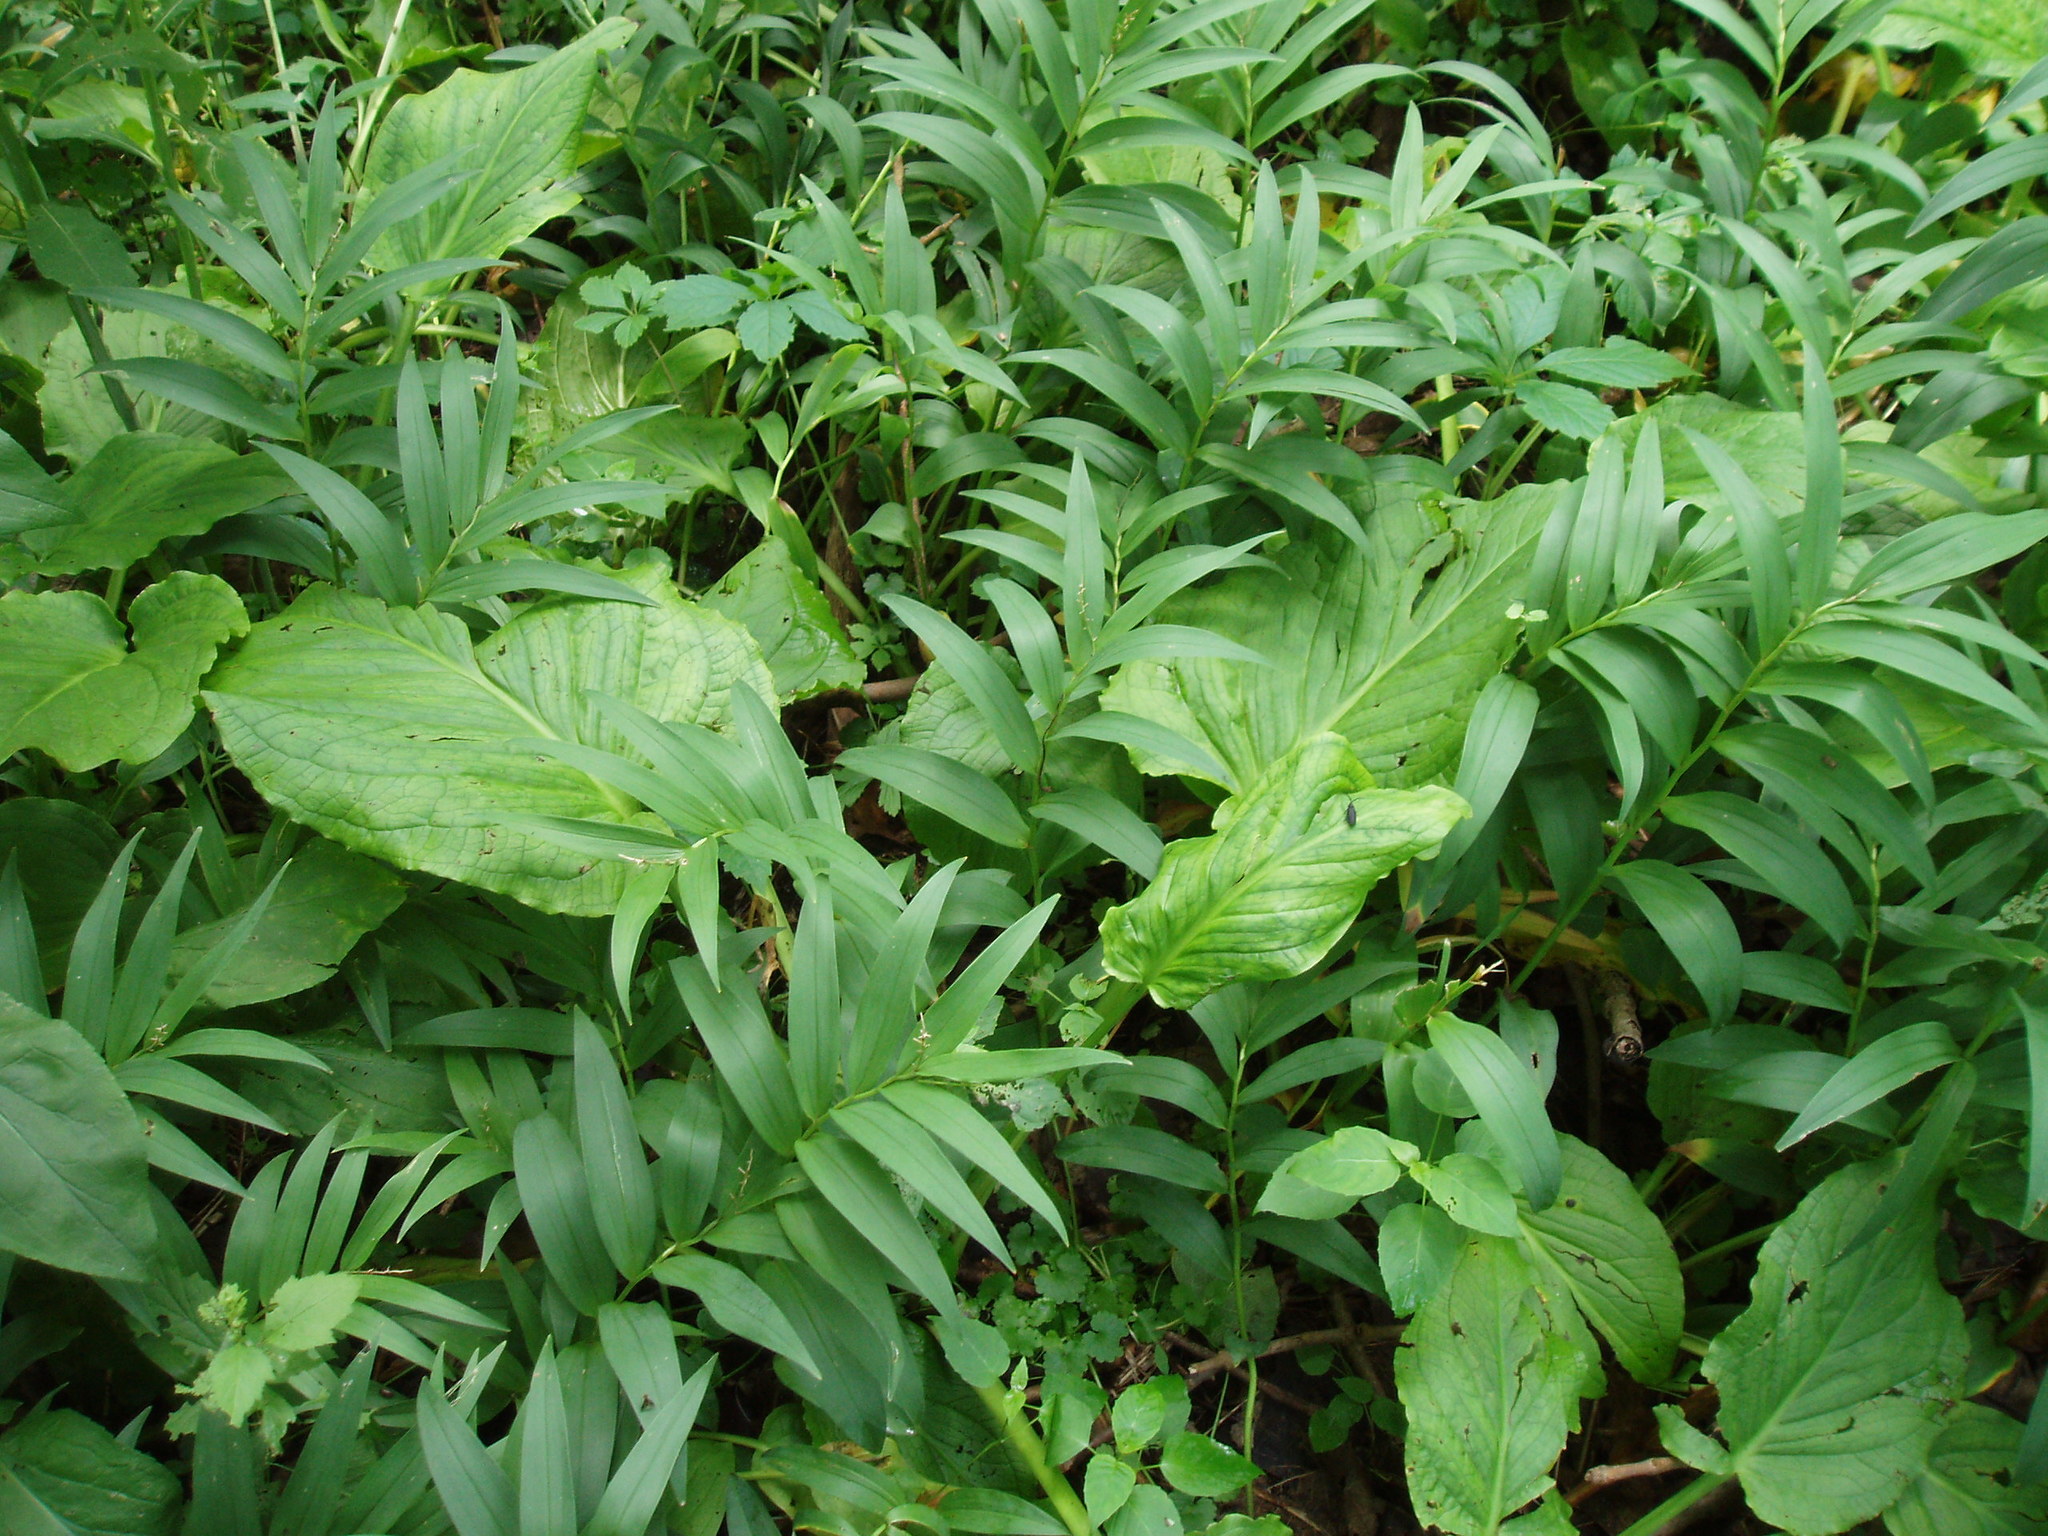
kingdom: Plantae
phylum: Tracheophyta
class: Liliopsida
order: Asparagales
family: Asparagaceae
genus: Maianthemum
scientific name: Maianthemum stellatum
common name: Little false solomon's seal
